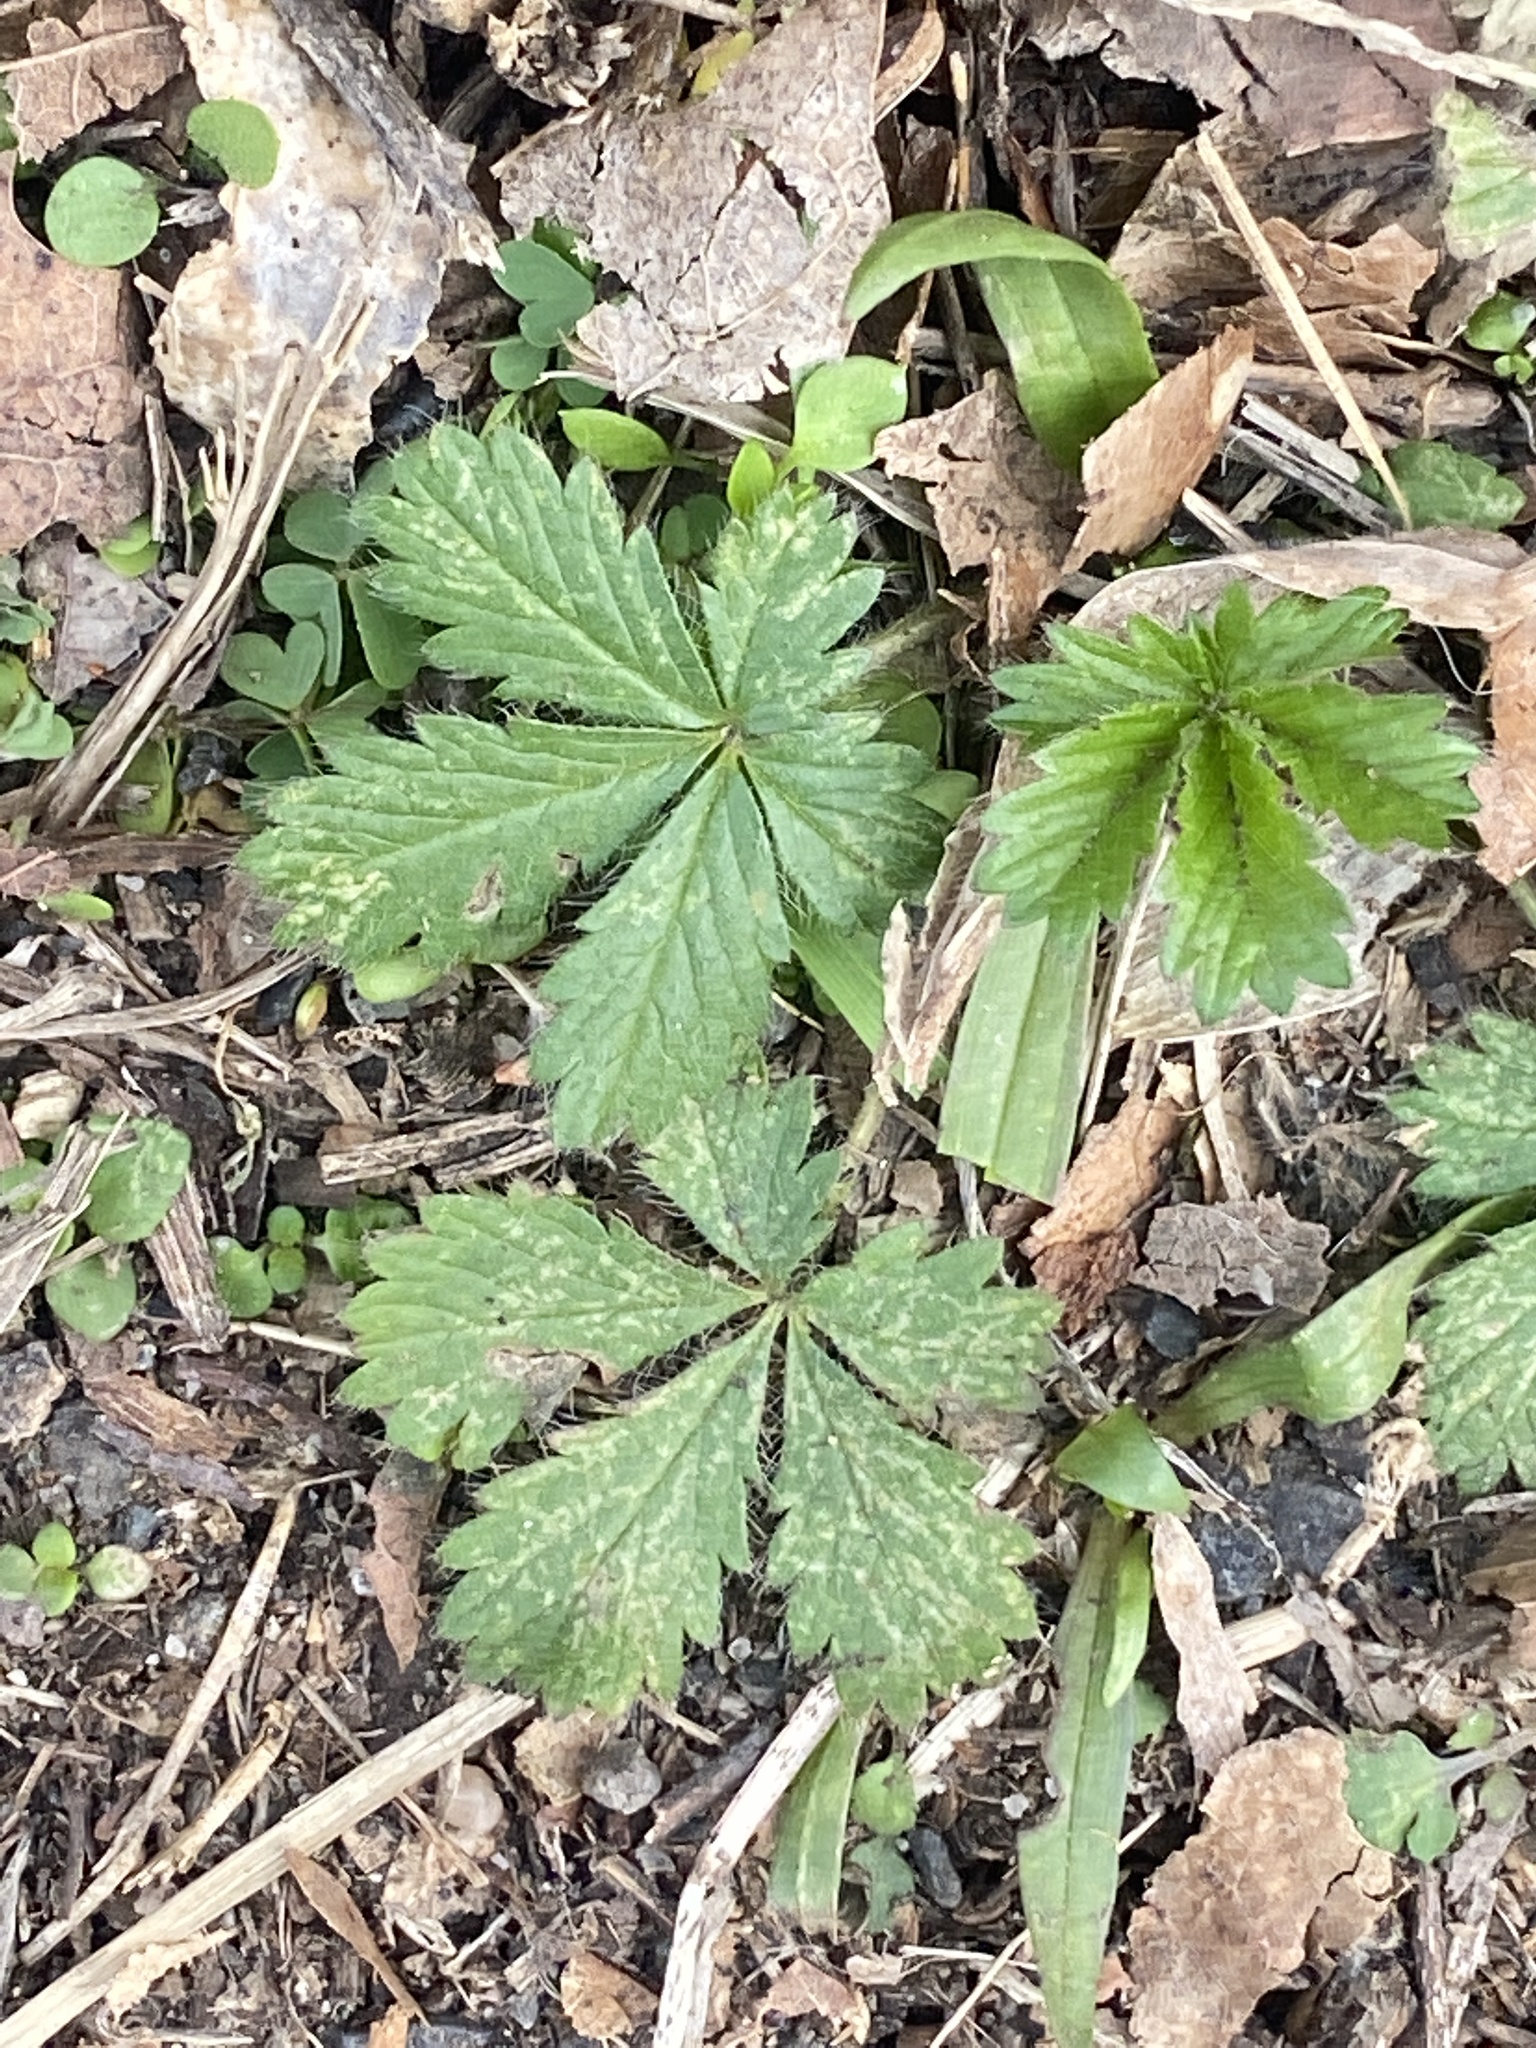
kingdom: Plantae
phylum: Tracheophyta
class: Magnoliopsida
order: Rosales
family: Rosaceae
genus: Potentilla
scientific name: Potentilla canadensis
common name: Canada cinquefoil
